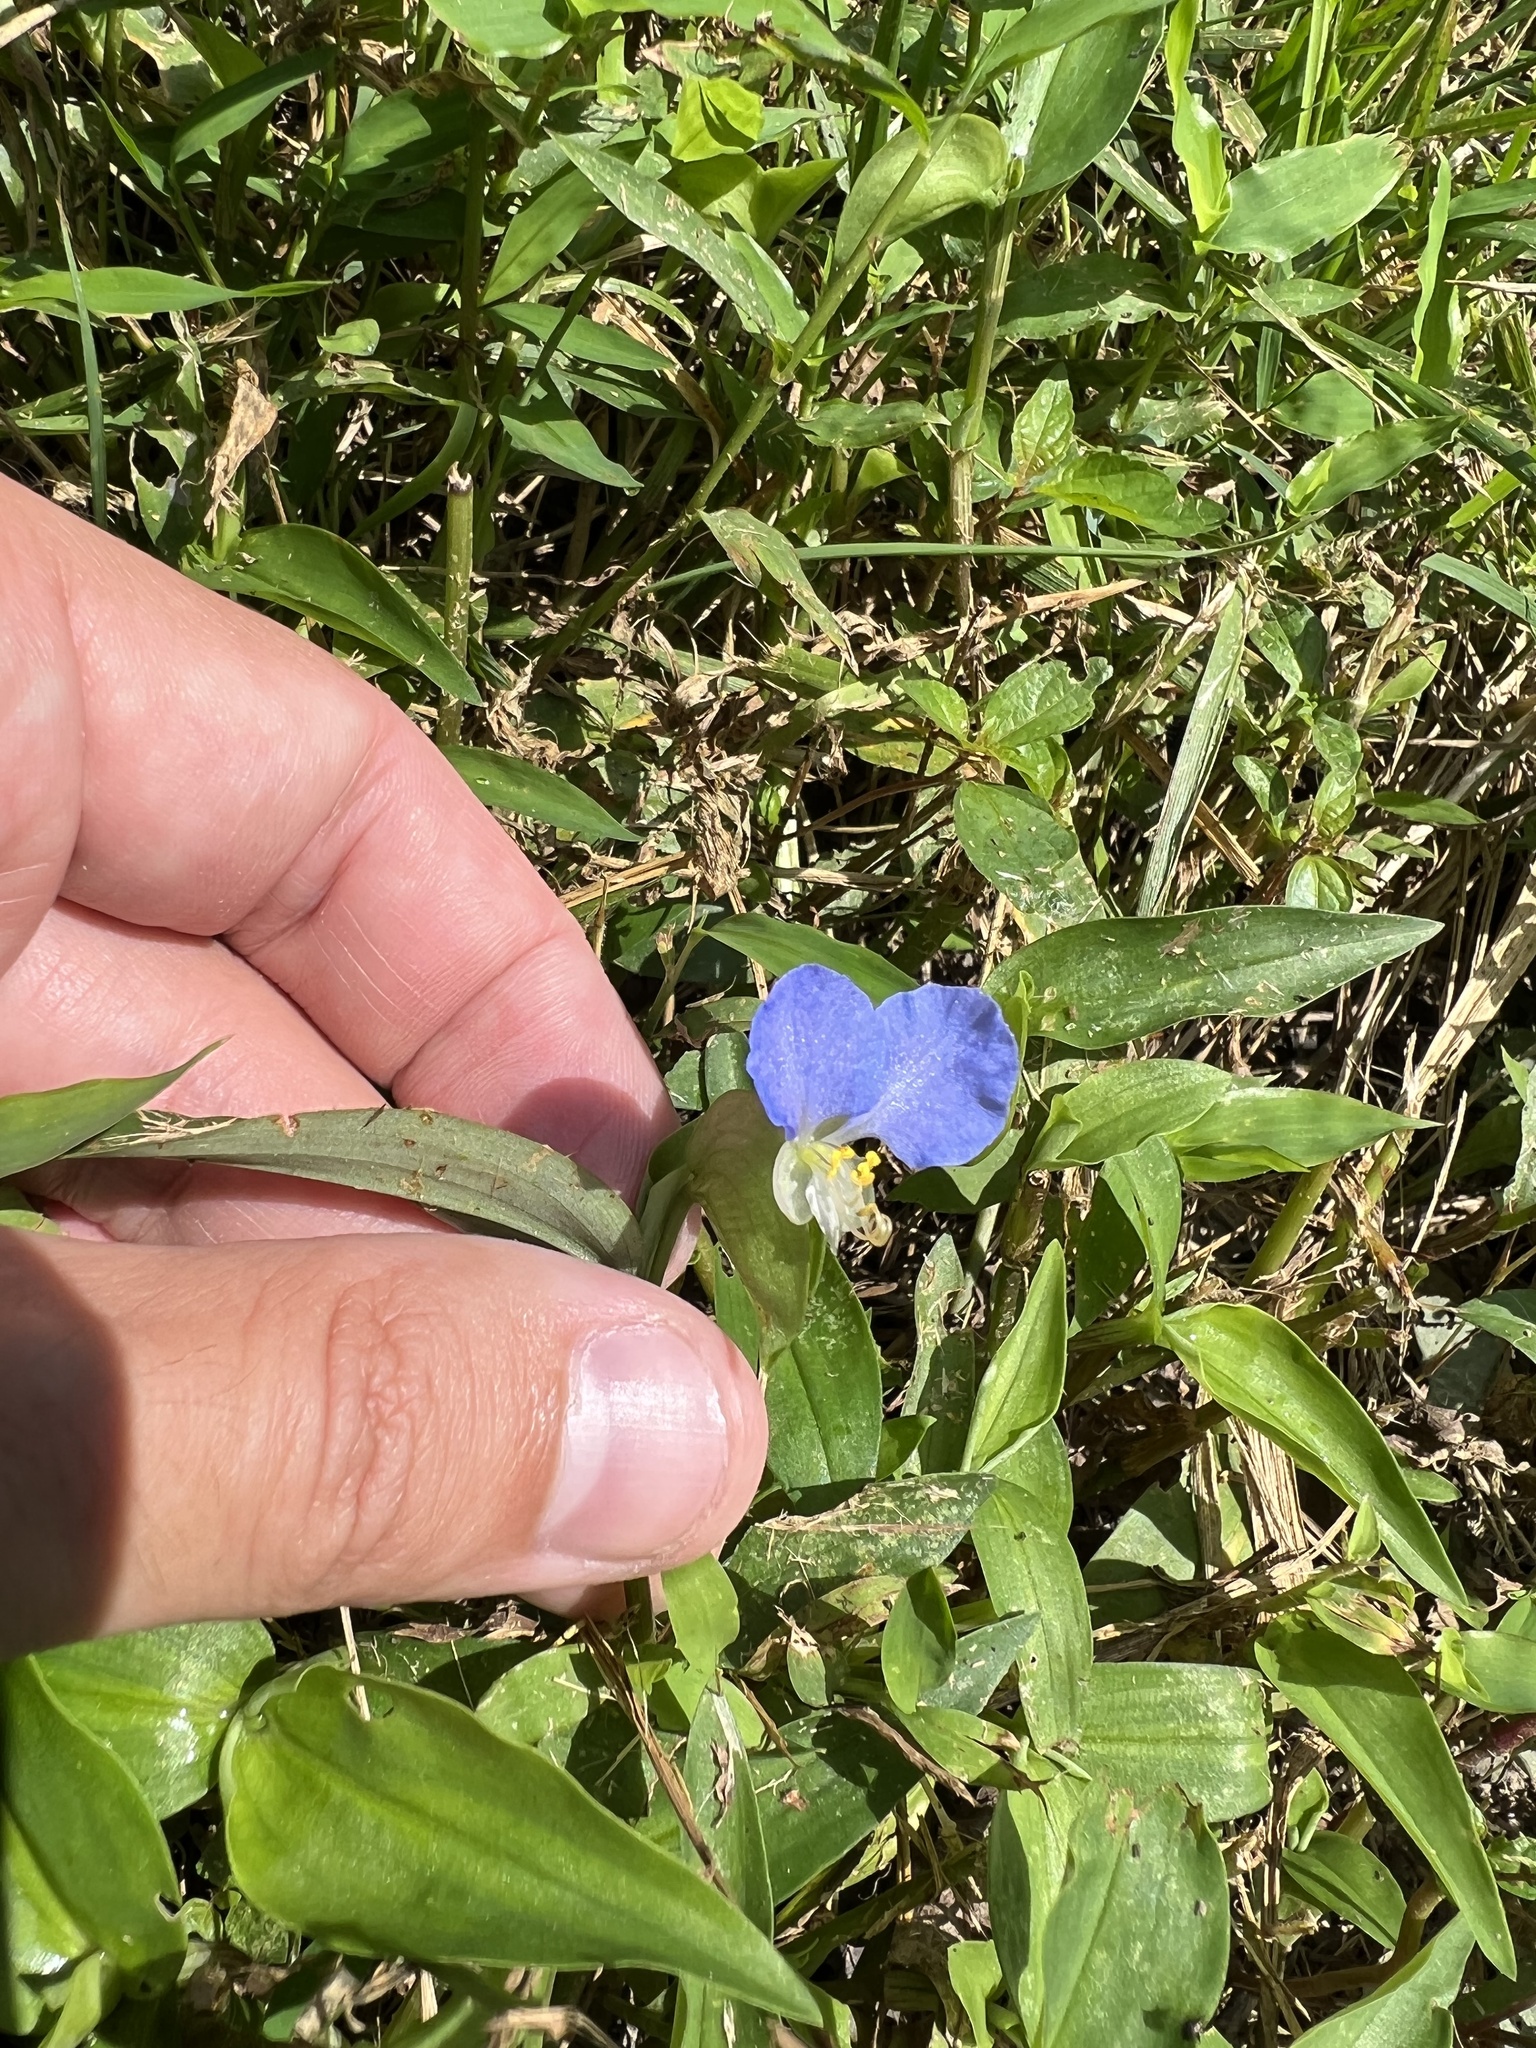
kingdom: Plantae
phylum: Tracheophyta
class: Liliopsida
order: Commelinales
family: Commelinaceae
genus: Commelina
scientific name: Commelina communis
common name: Asiatic dayflower
